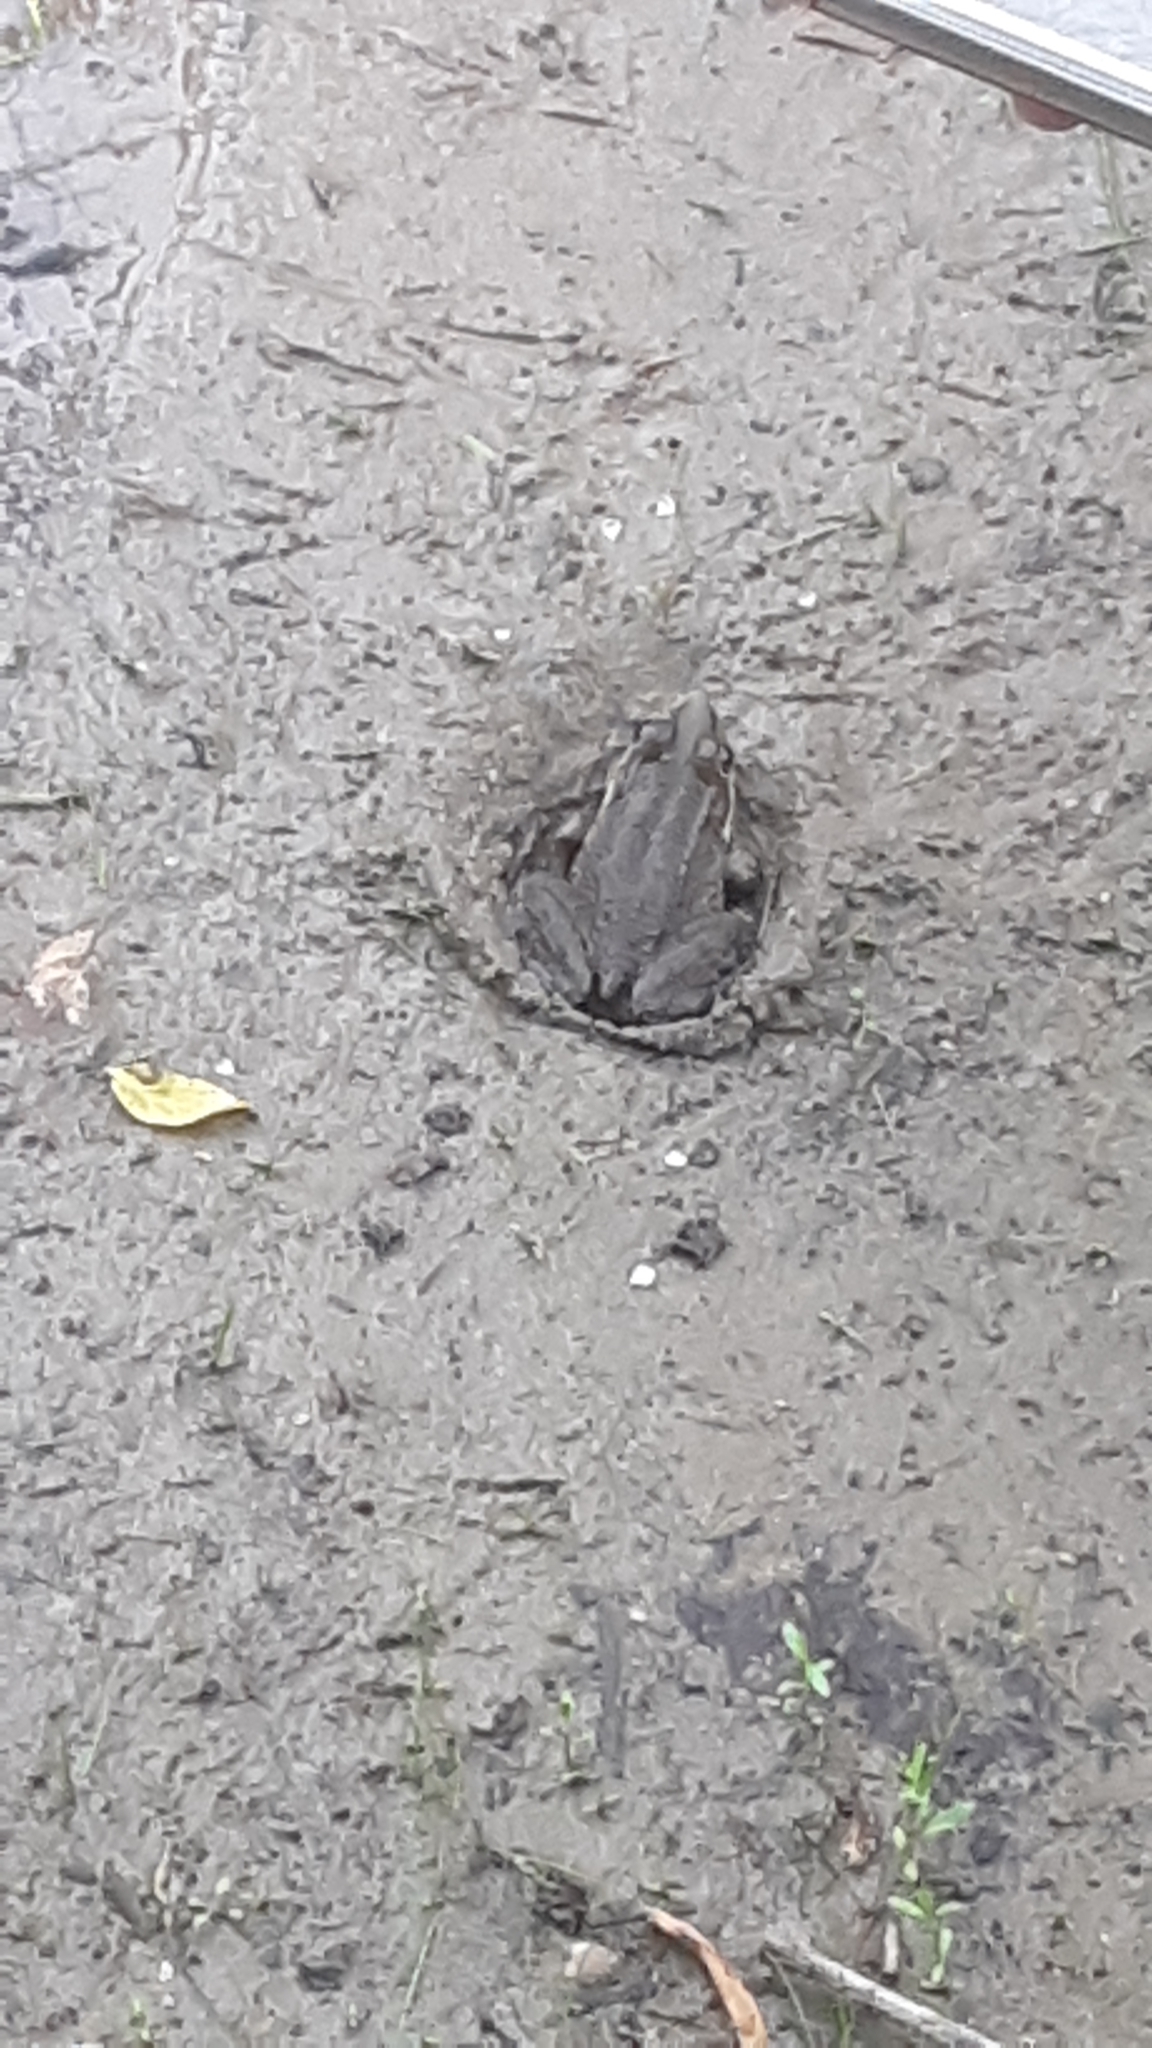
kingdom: Animalia
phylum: Chordata
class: Amphibia
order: Anura
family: Ranidae
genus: Lithobates
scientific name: Lithobates clamitans
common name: Green frog
